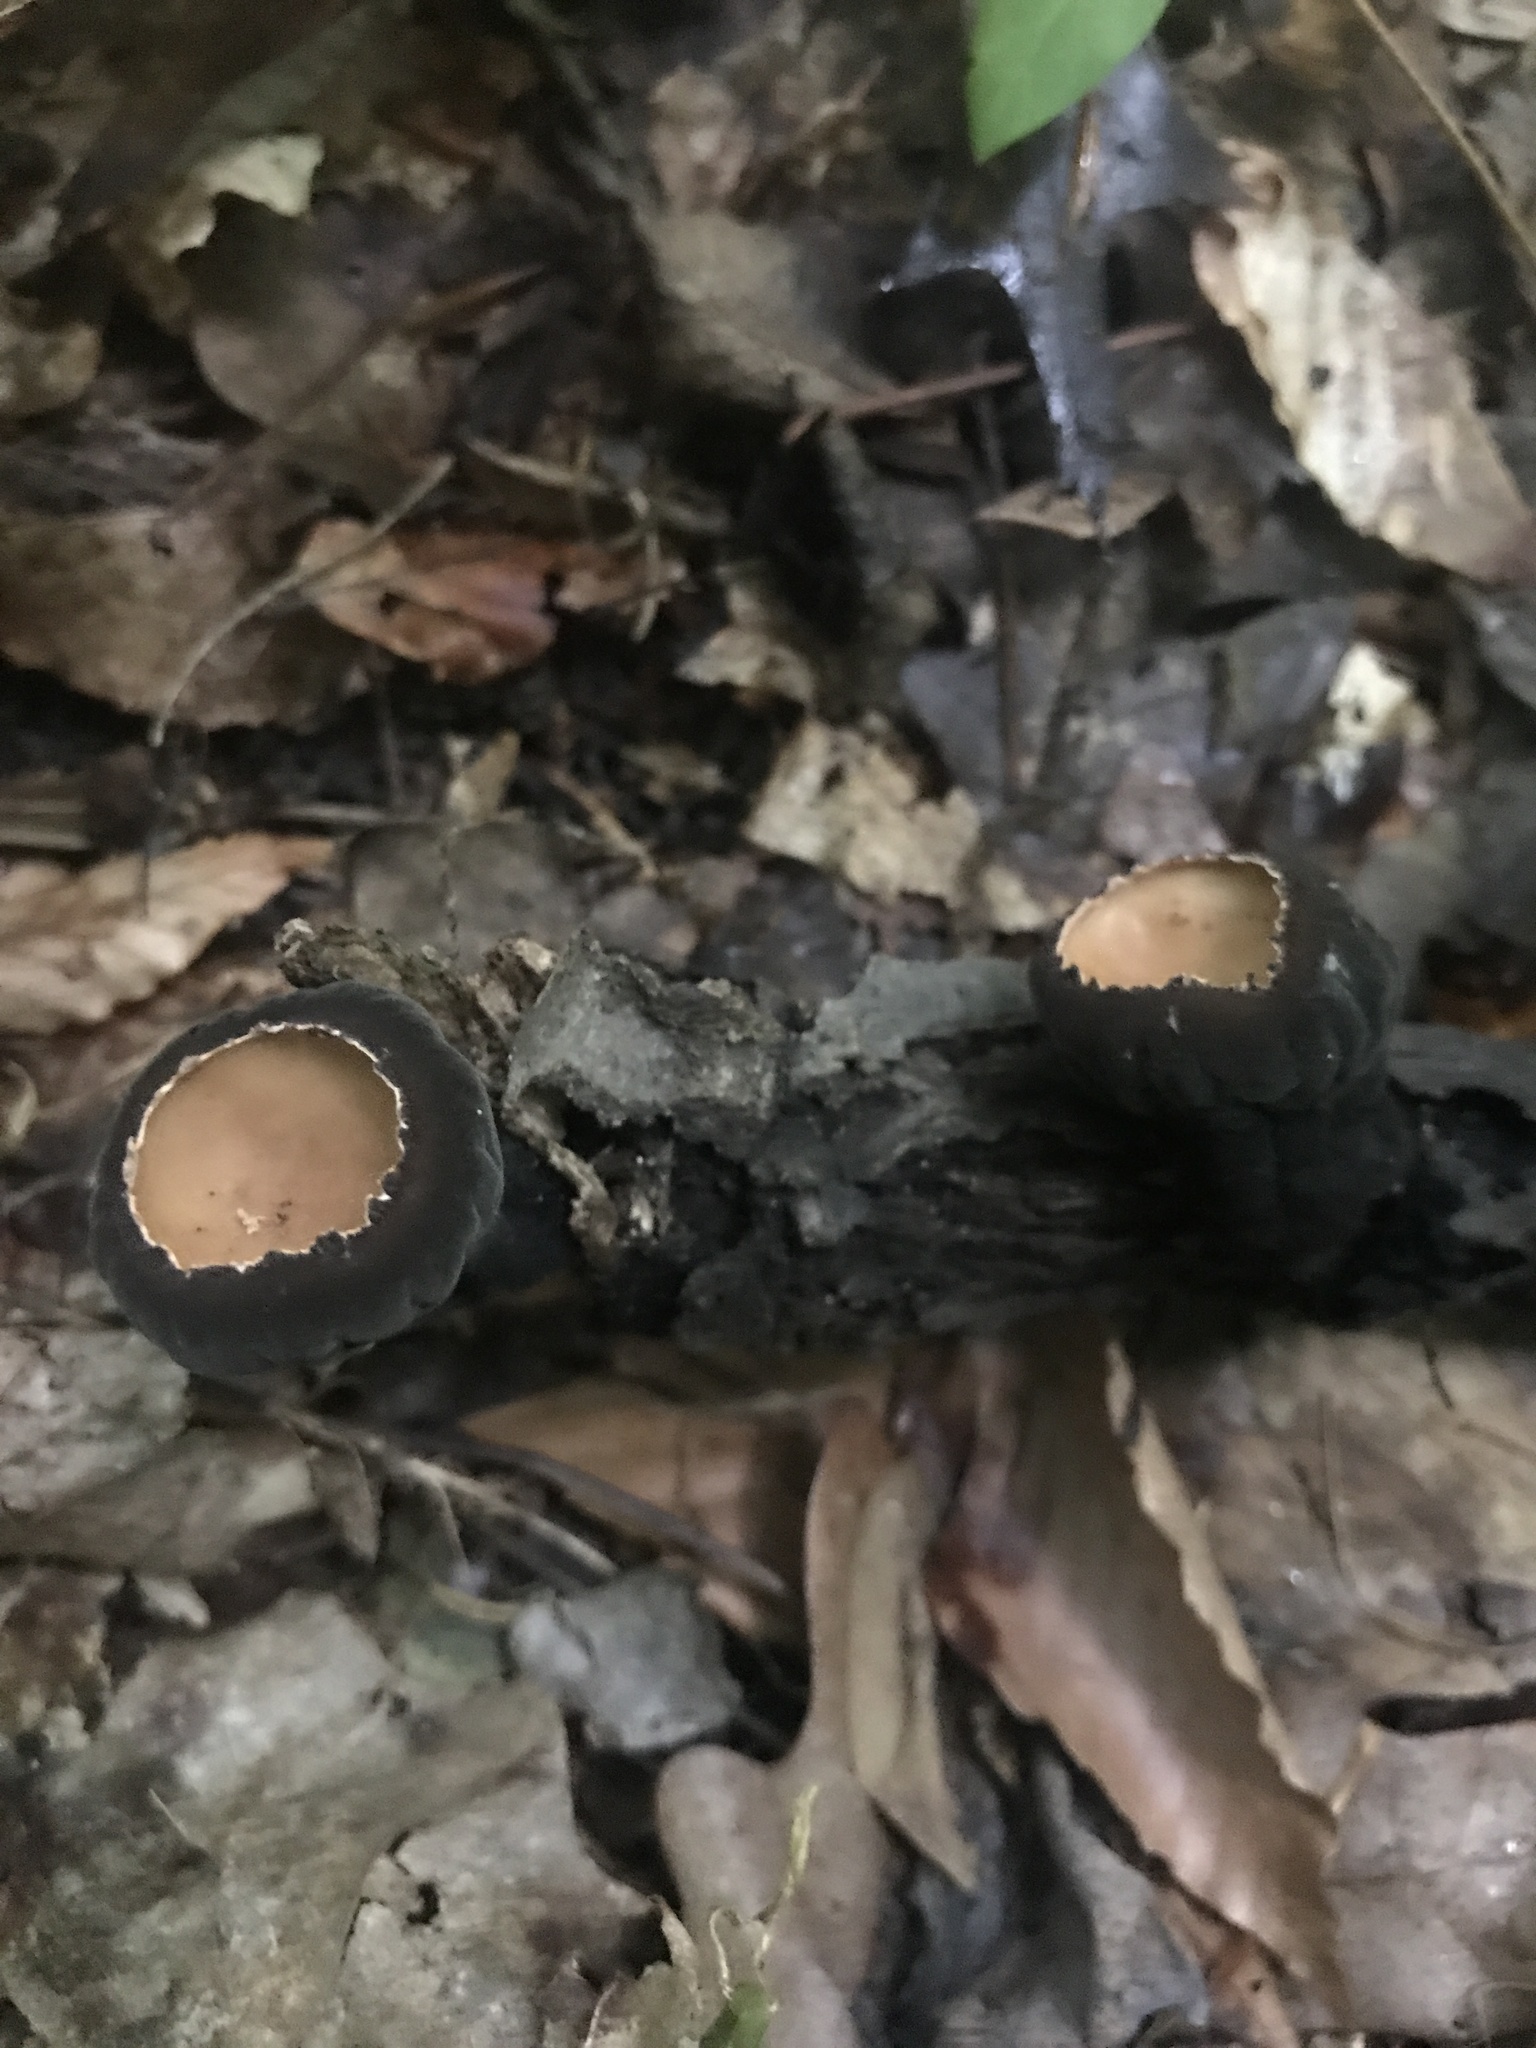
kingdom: Fungi
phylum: Ascomycota
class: Pezizomycetes
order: Pezizales
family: Sarcosomataceae
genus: Galiella
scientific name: Galiella rufa
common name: Hairy rubber cup
